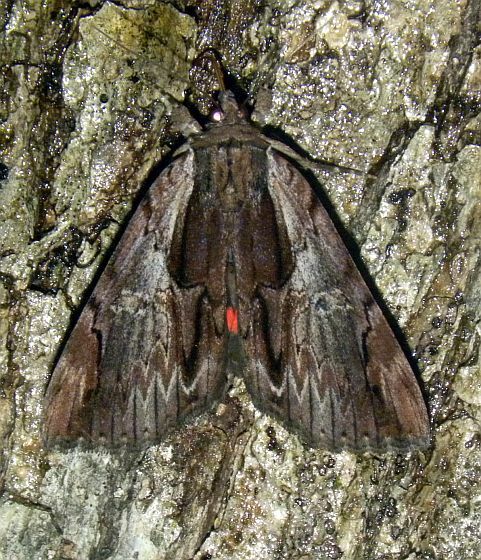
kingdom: Animalia
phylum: Arthropoda
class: Insecta
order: Lepidoptera
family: Erebidae
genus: Catocala
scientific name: Catocala ultronia
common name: Ultronia underwing
